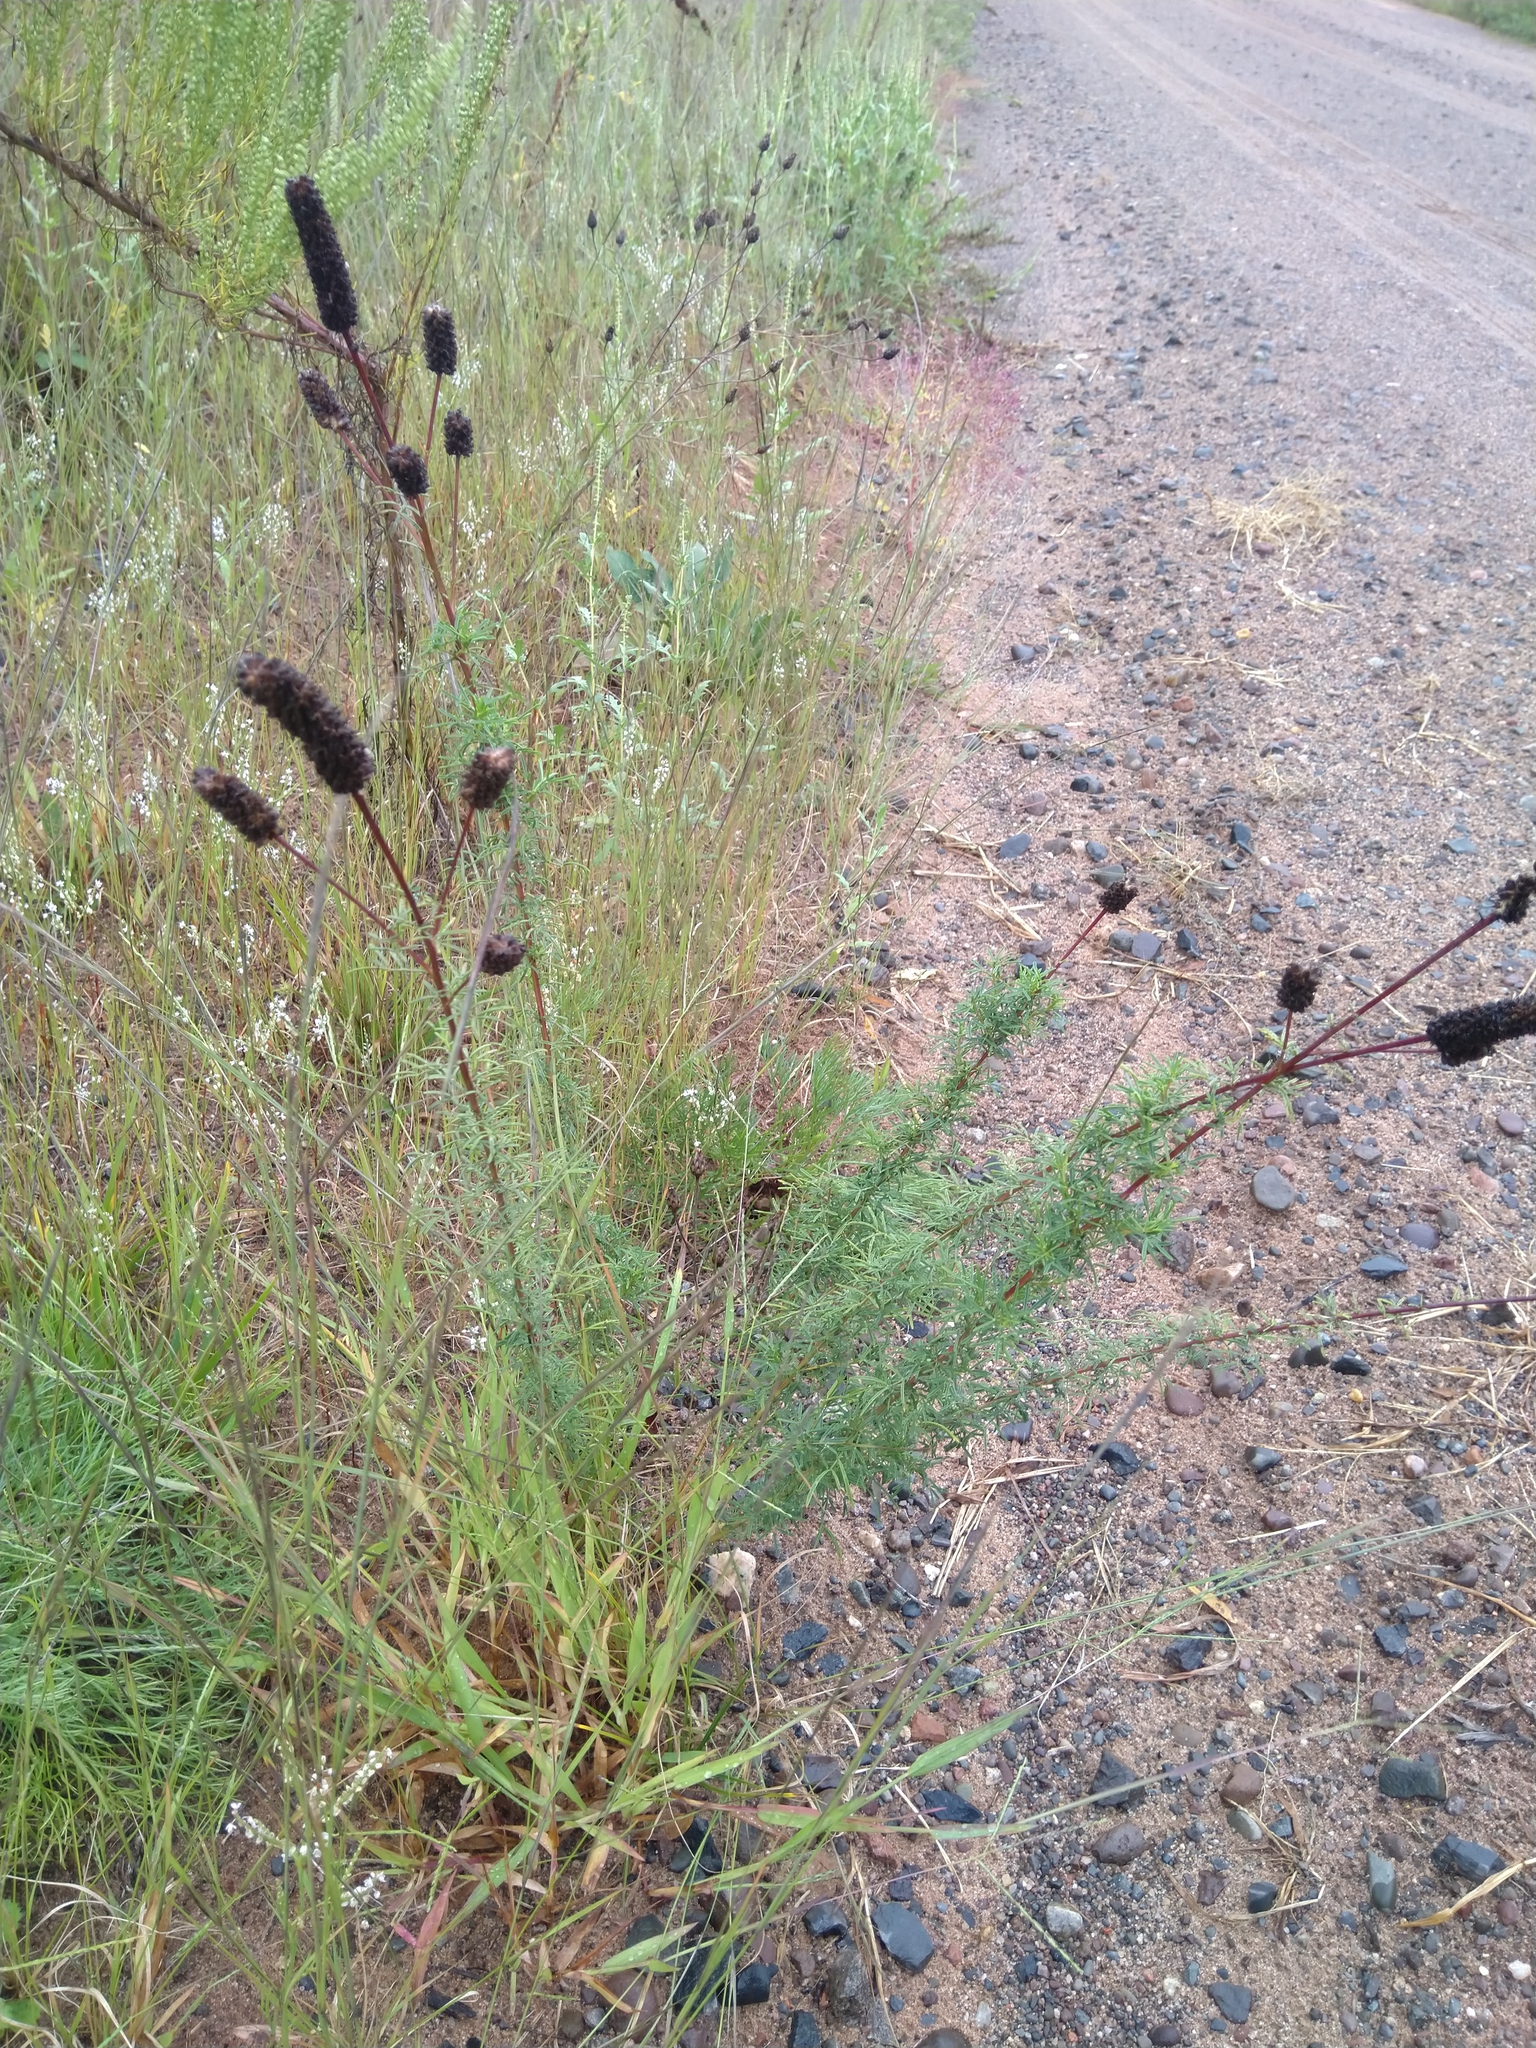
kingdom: Plantae
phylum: Tracheophyta
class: Magnoliopsida
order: Fabales
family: Fabaceae
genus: Dalea
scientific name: Dalea purpurea
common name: Purple prairie-clover
